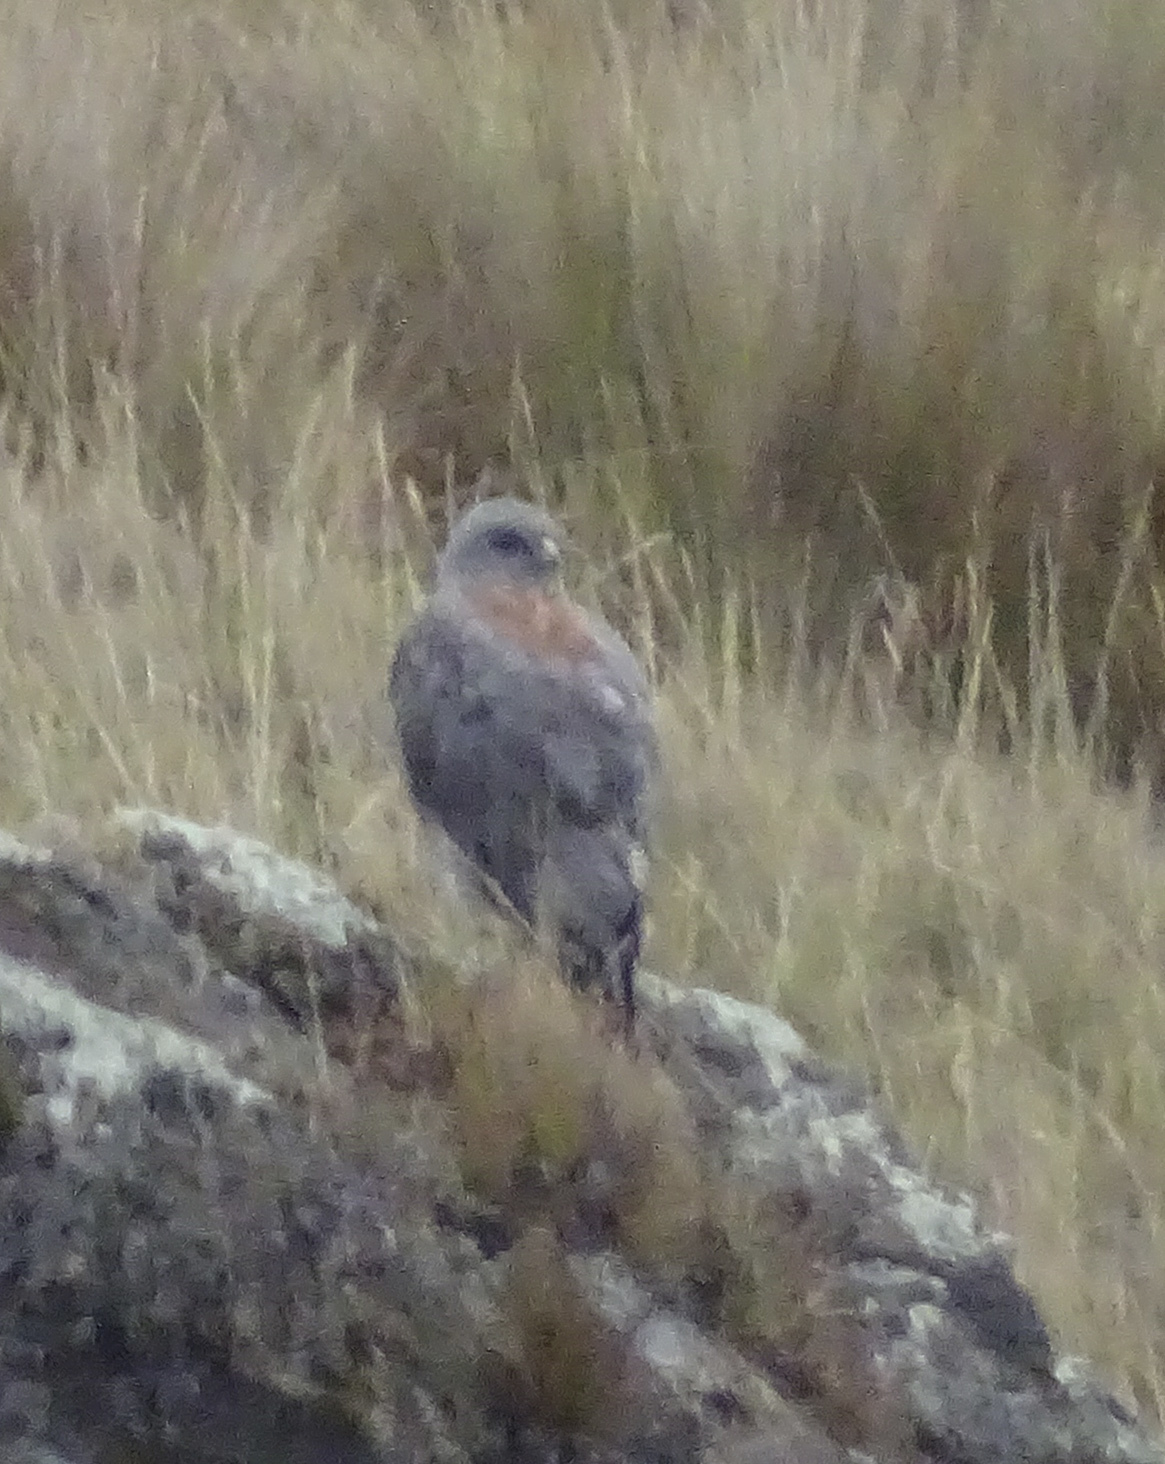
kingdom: Animalia
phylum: Chordata
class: Aves
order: Accipitriformes
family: Accipitridae
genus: Buteo
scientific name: Buteo polyosoma
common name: Variable hawk
